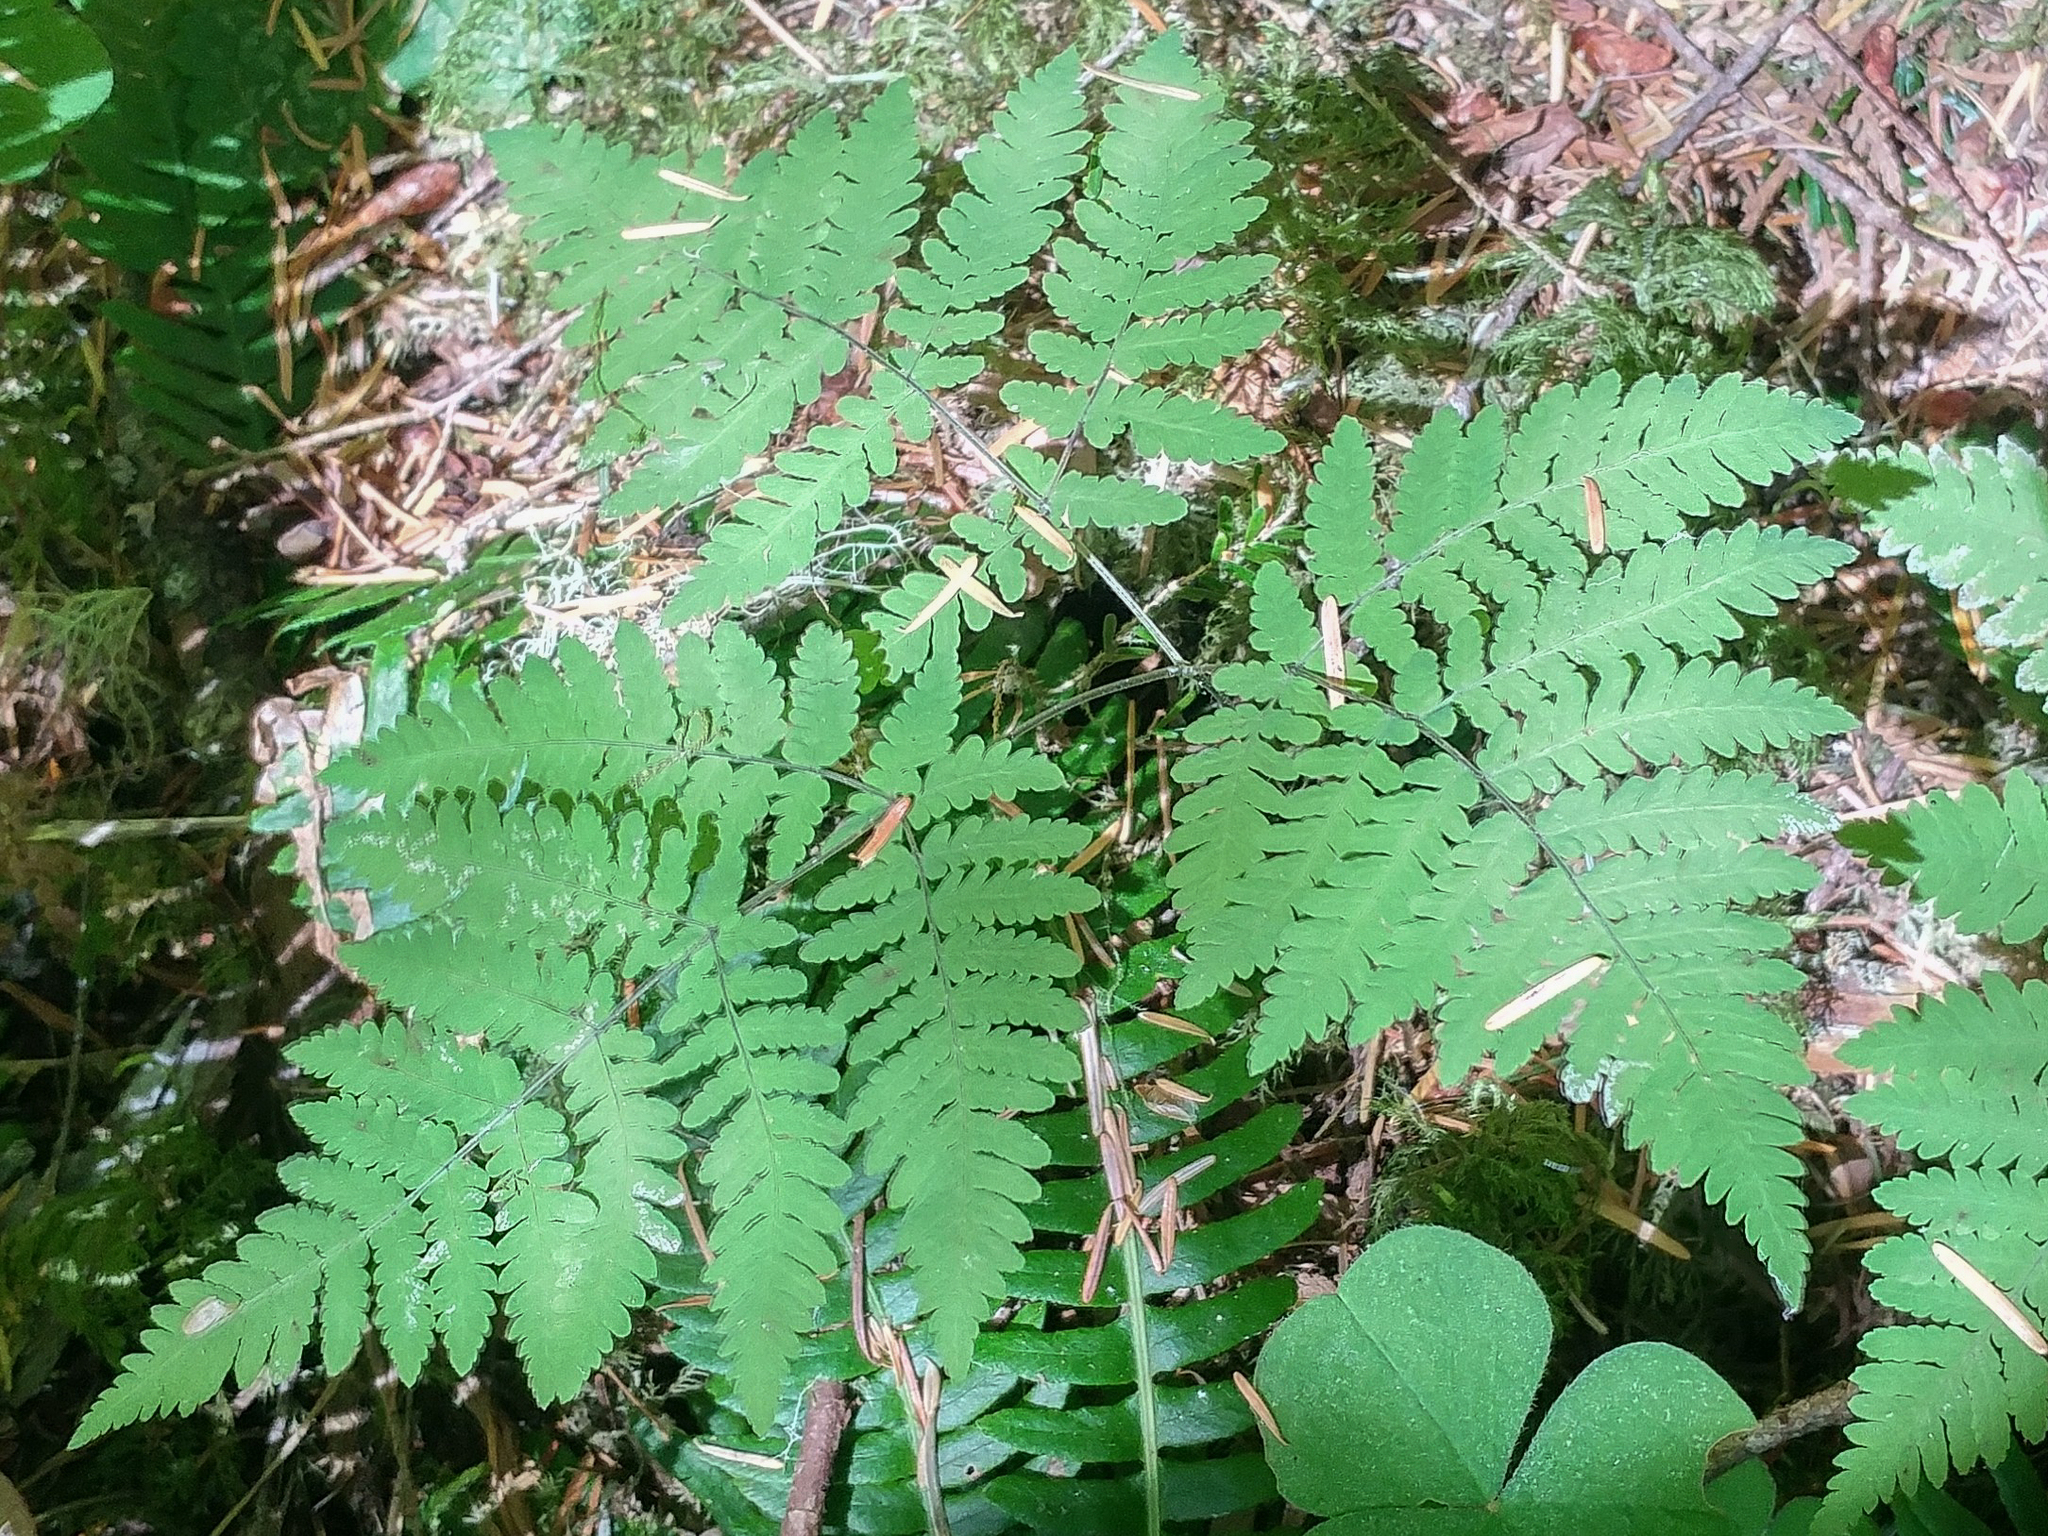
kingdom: Plantae
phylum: Tracheophyta
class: Polypodiopsida
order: Polypodiales
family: Cystopteridaceae
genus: Gymnocarpium
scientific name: Gymnocarpium disjunctum
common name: Western oak fern
